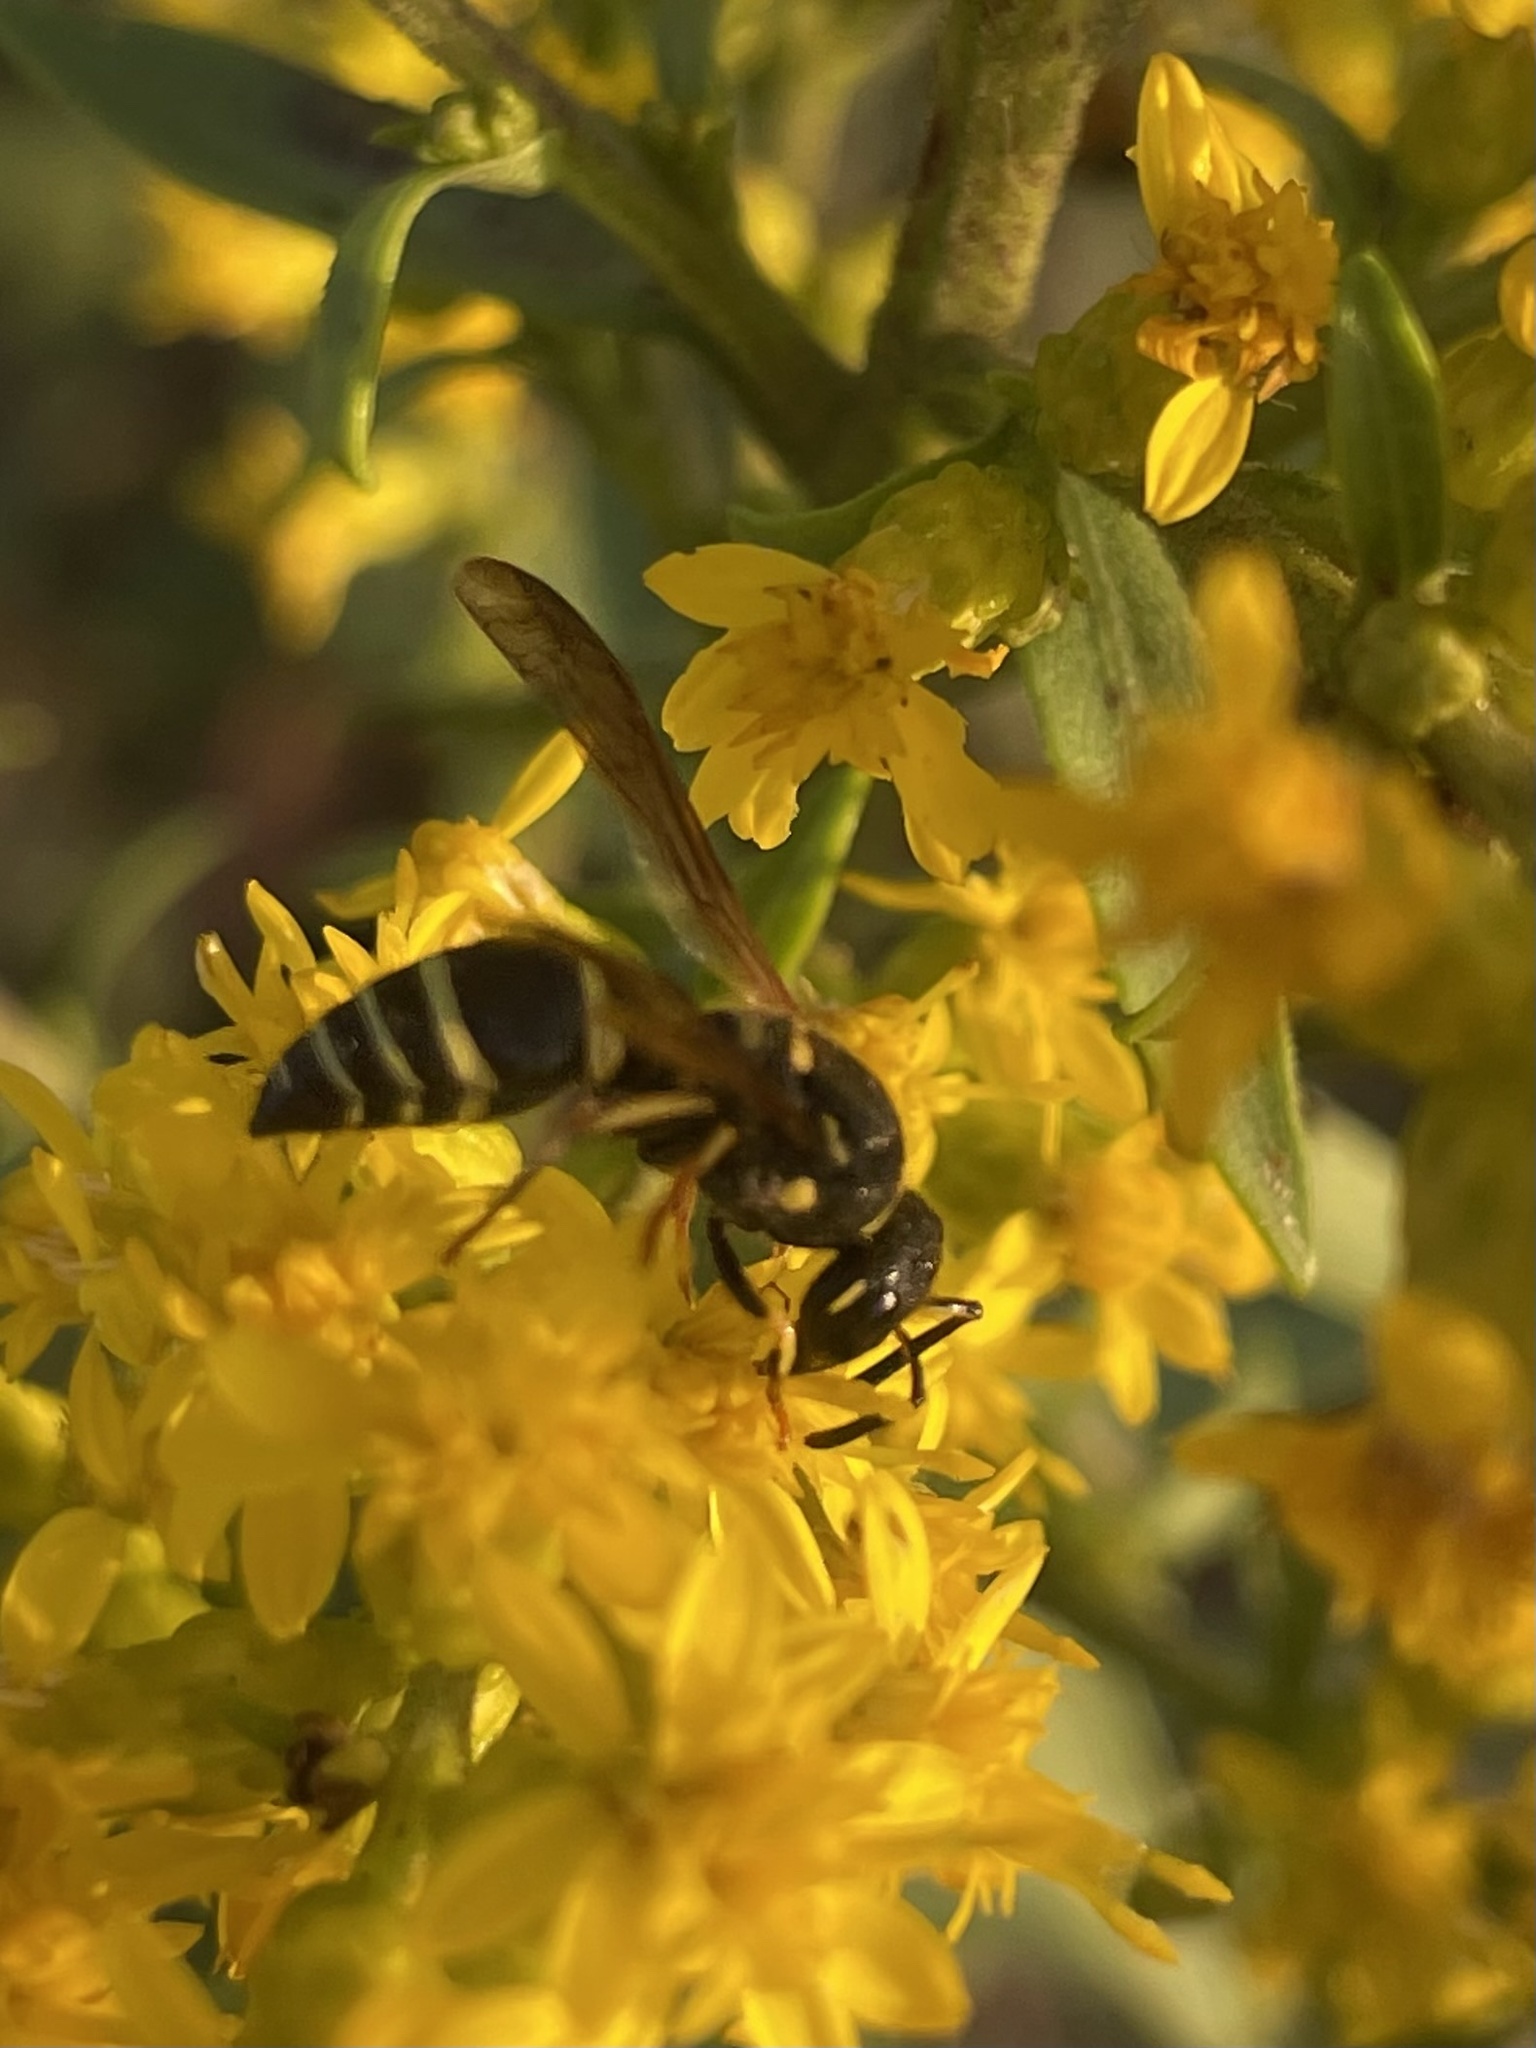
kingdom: Animalia
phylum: Arthropoda
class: Insecta
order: Hymenoptera
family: Vespidae
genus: Ancistrocerus
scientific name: Ancistrocerus adiabatus
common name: Bramble mason wasp
